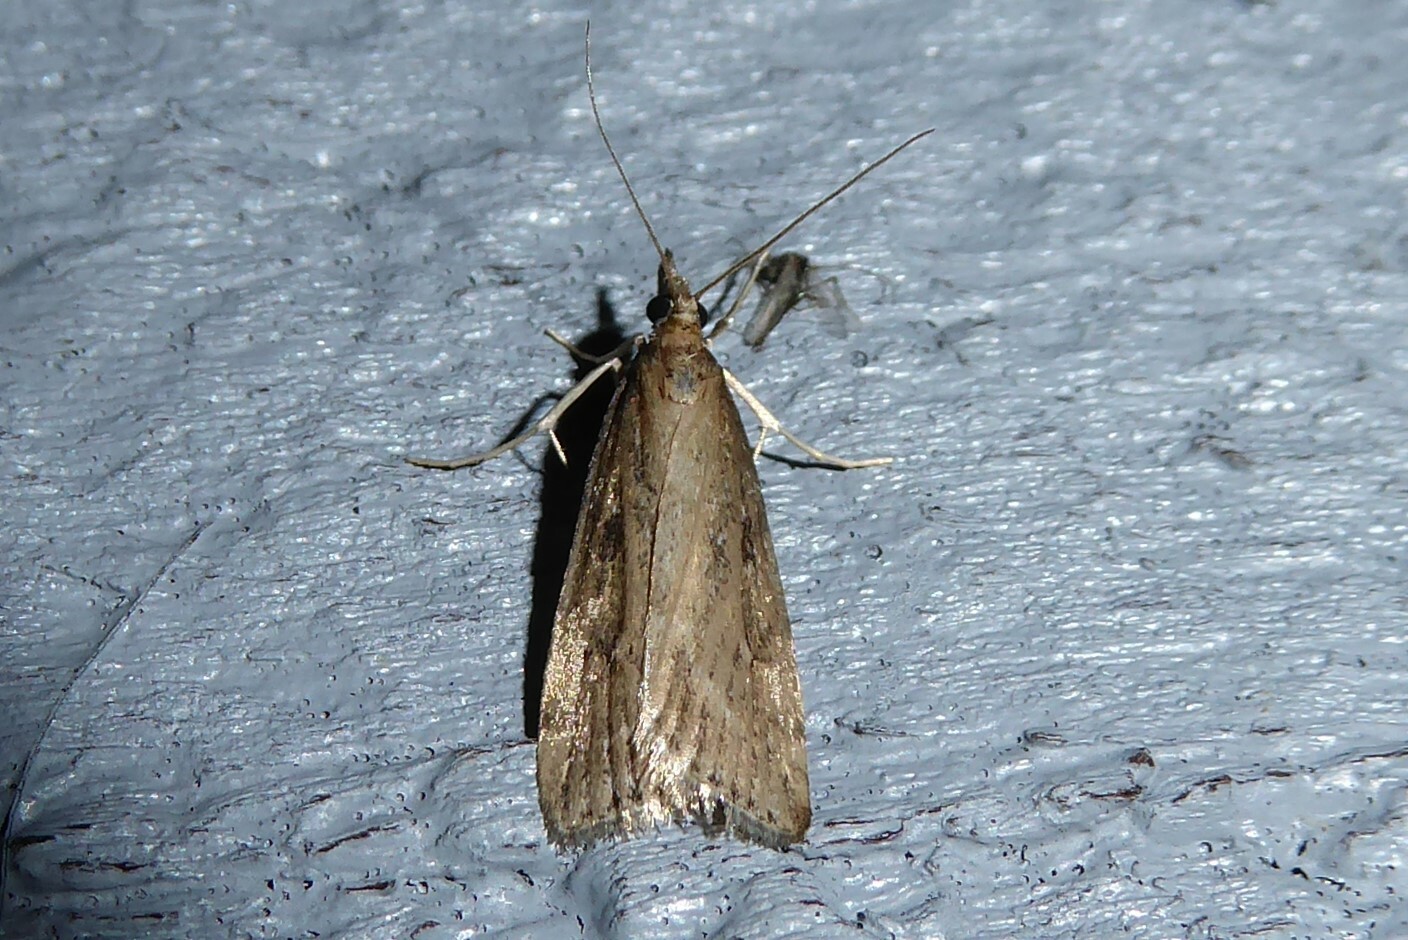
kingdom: Animalia
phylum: Arthropoda
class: Insecta
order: Lepidoptera
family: Crambidae
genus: Eudonia
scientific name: Eudonia octophora
